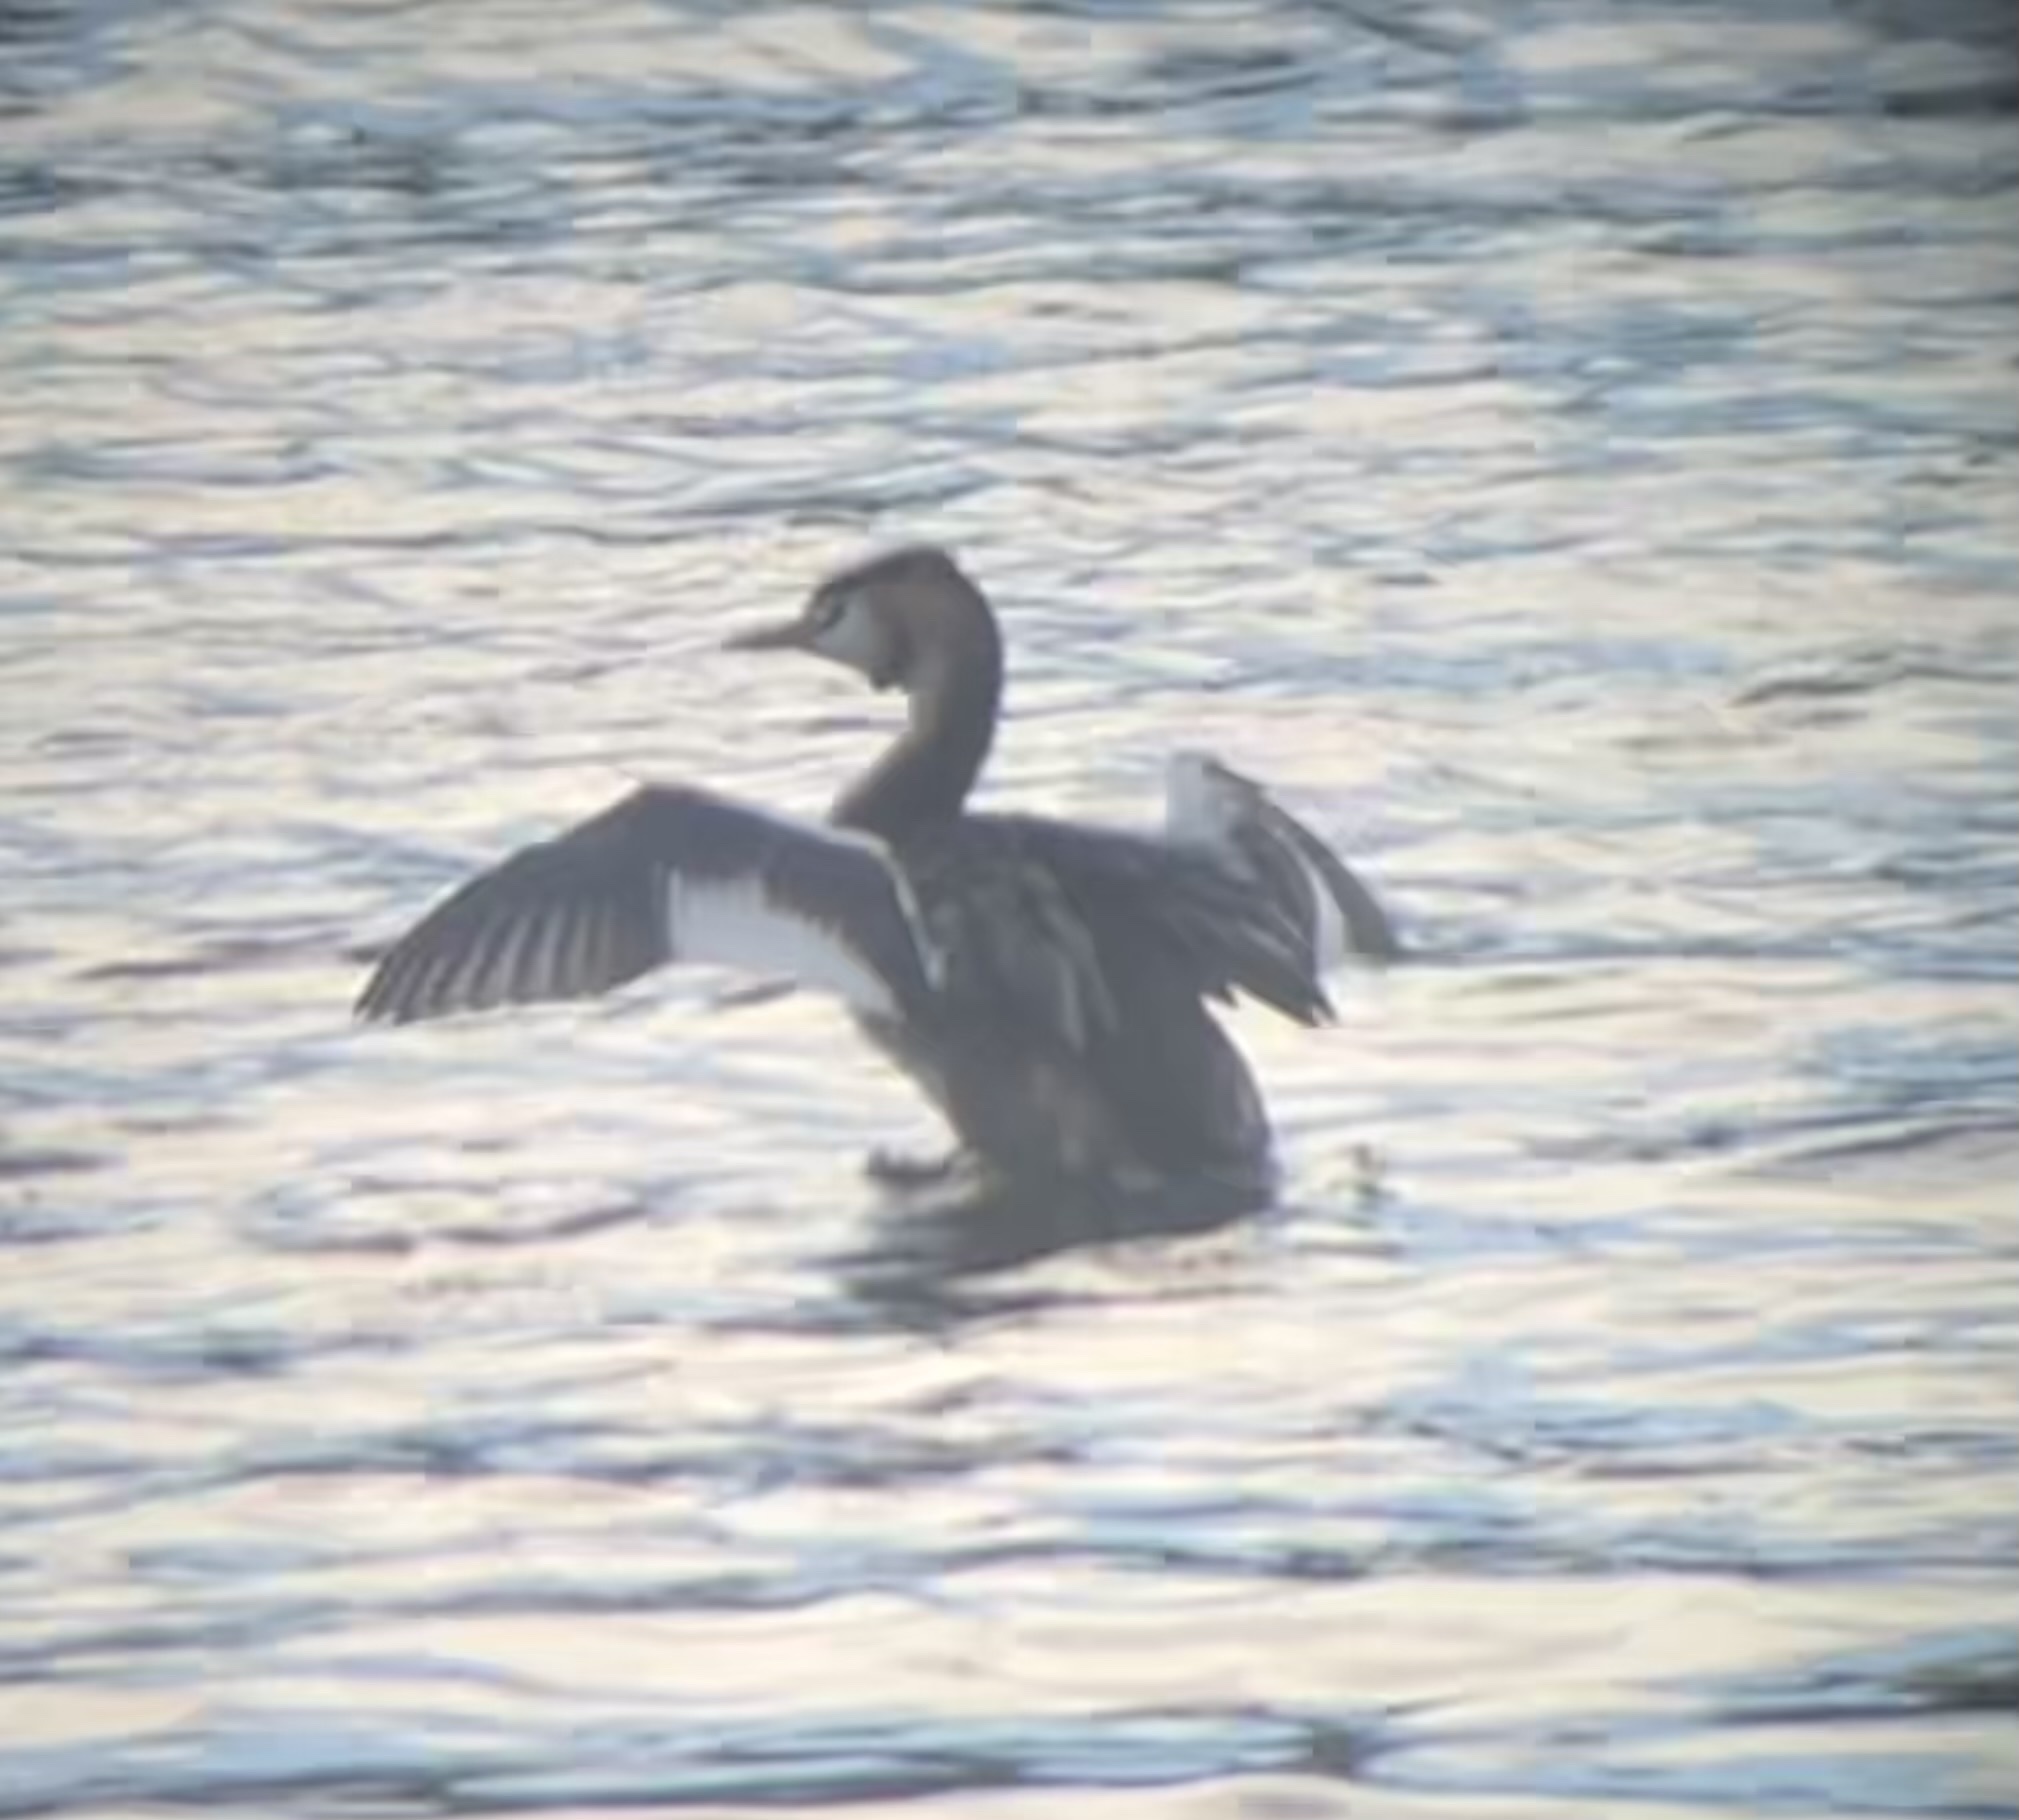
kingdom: Animalia
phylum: Chordata
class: Aves
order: Podicipediformes
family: Podicipedidae
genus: Podiceps
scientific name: Podiceps cristatus
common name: Great crested grebe
